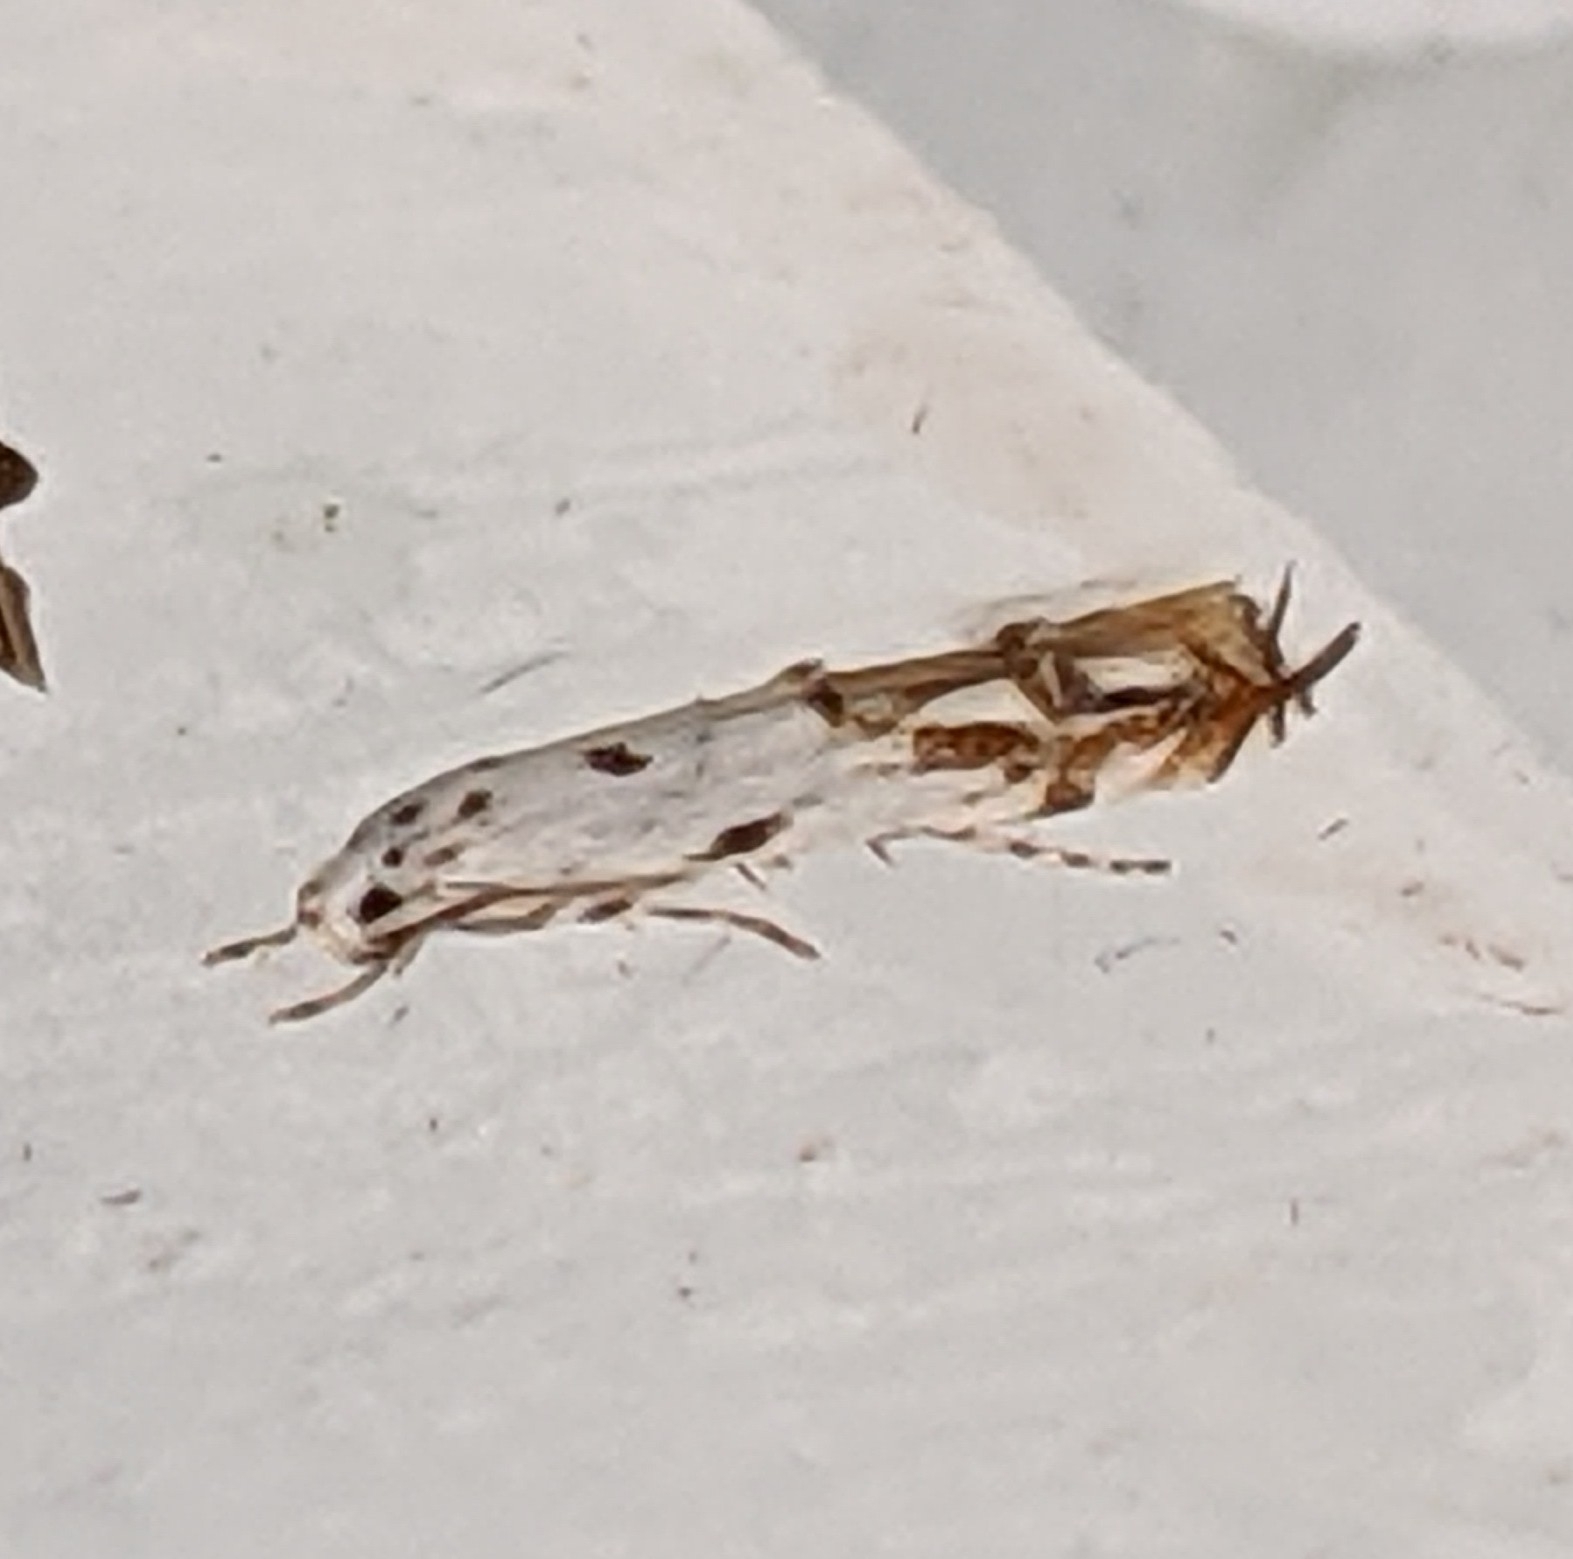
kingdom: Animalia
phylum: Arthropoda
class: Insecta
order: Lepidoptera
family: Momphidae
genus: Mompha
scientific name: Mompha eloisella
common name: Red-streaked mompha moth
